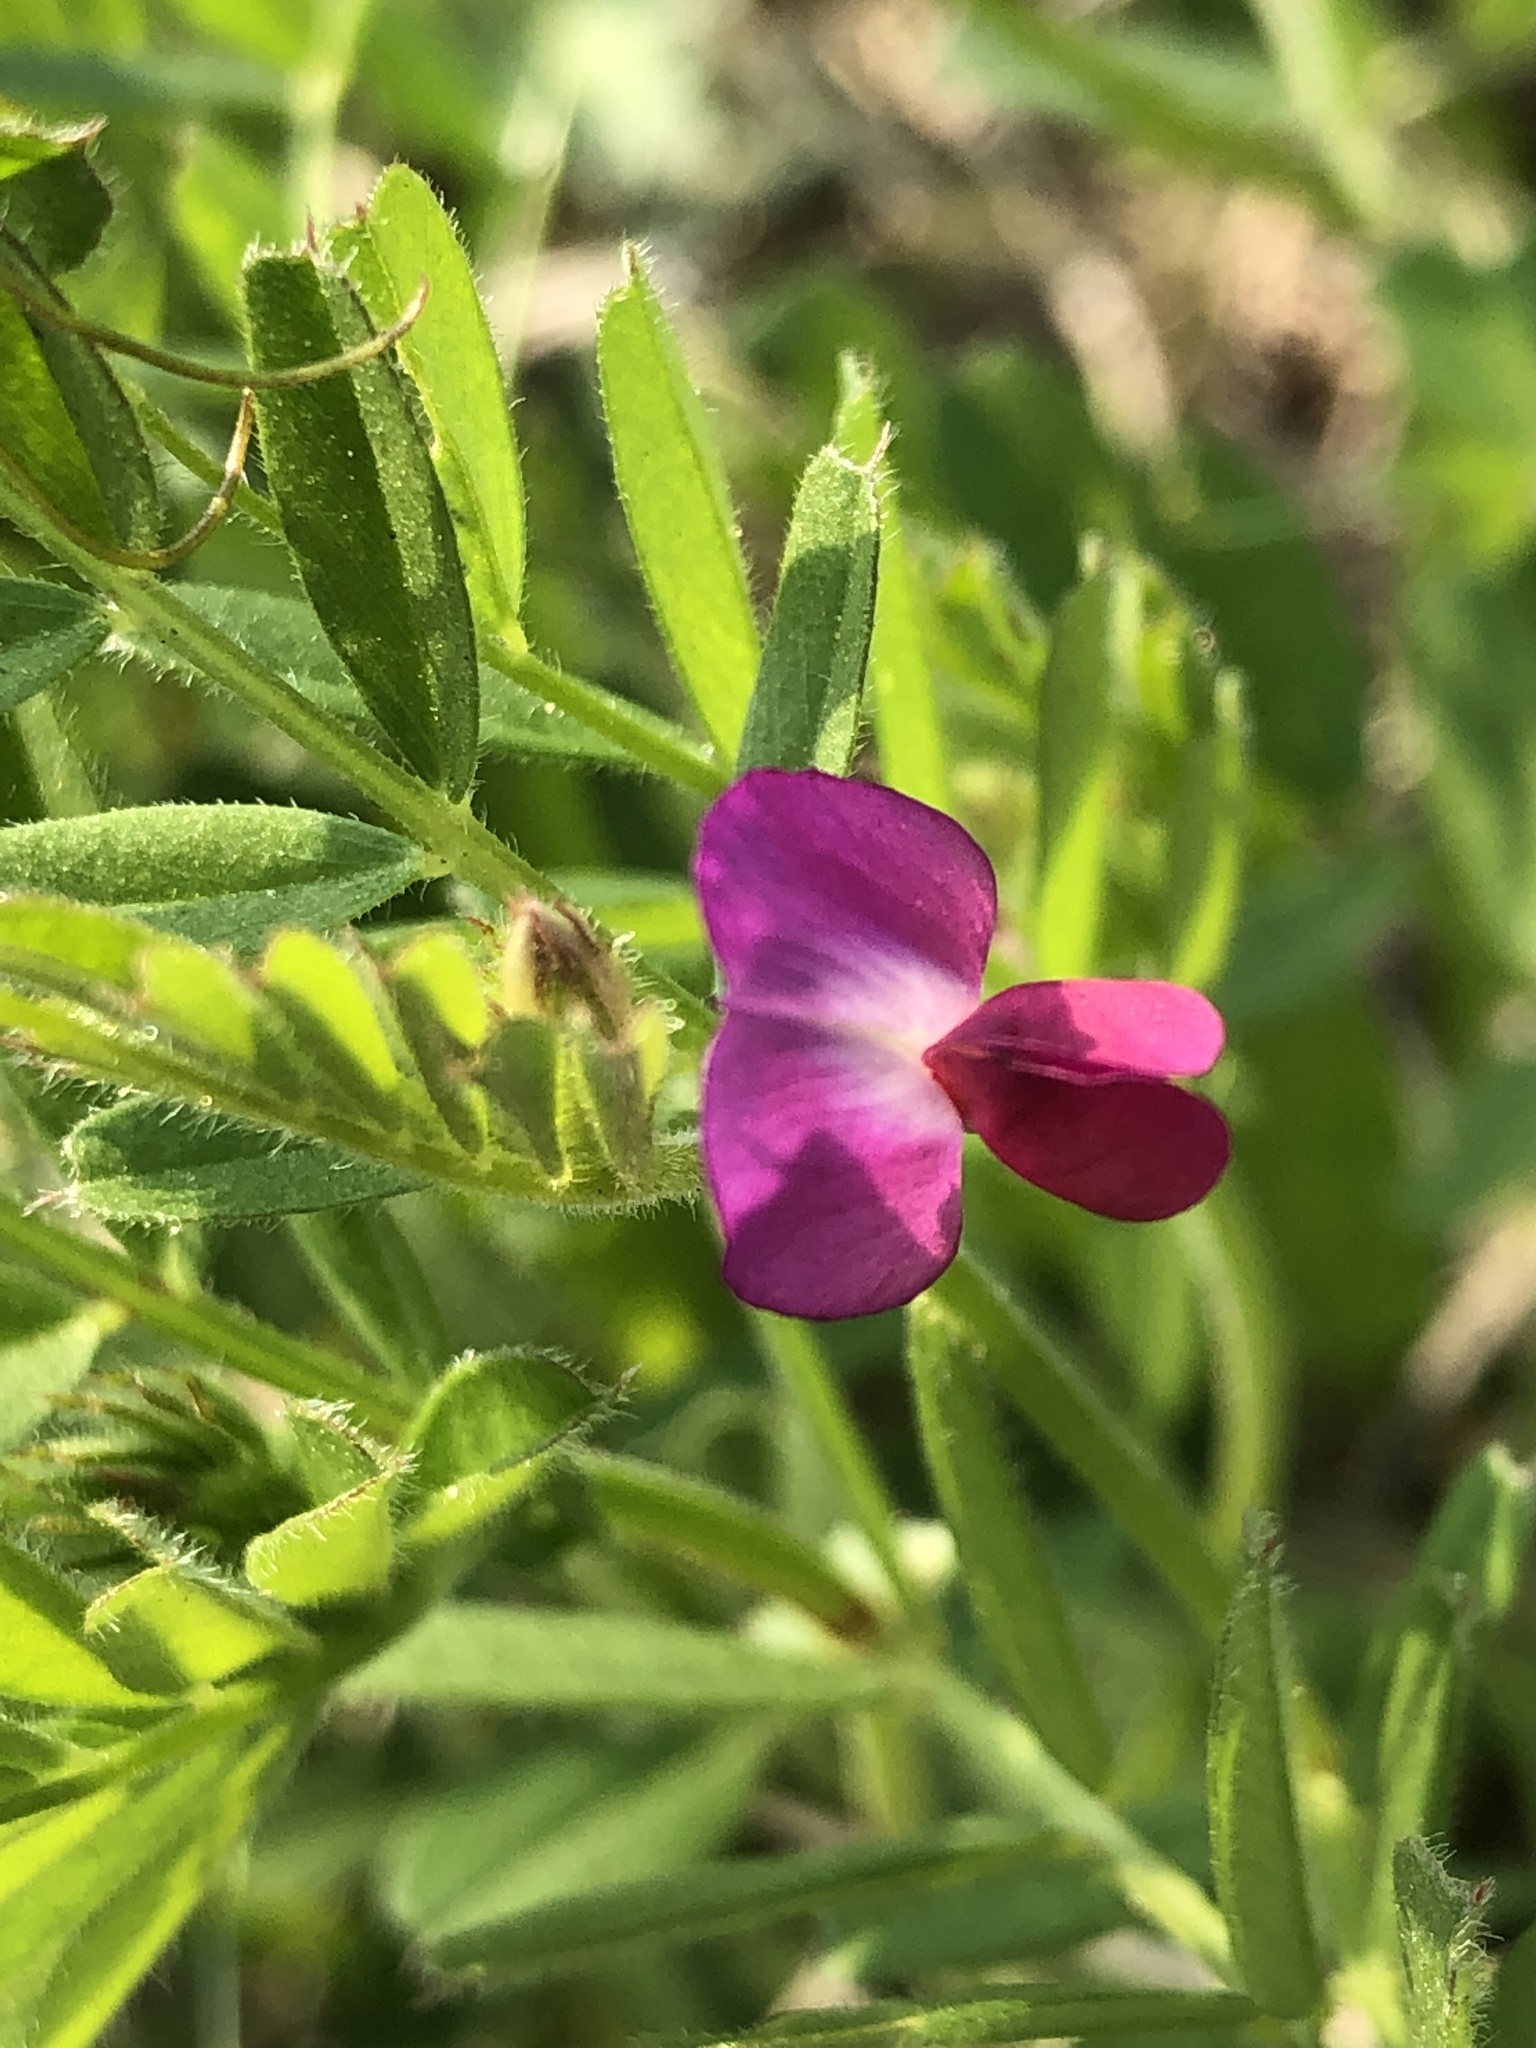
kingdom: Plantae
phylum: Tracheophyta
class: Magnoliopsida
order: Fabales
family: Fabaceae
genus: Vicia
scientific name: Vicia sativa
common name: Garden vetch
